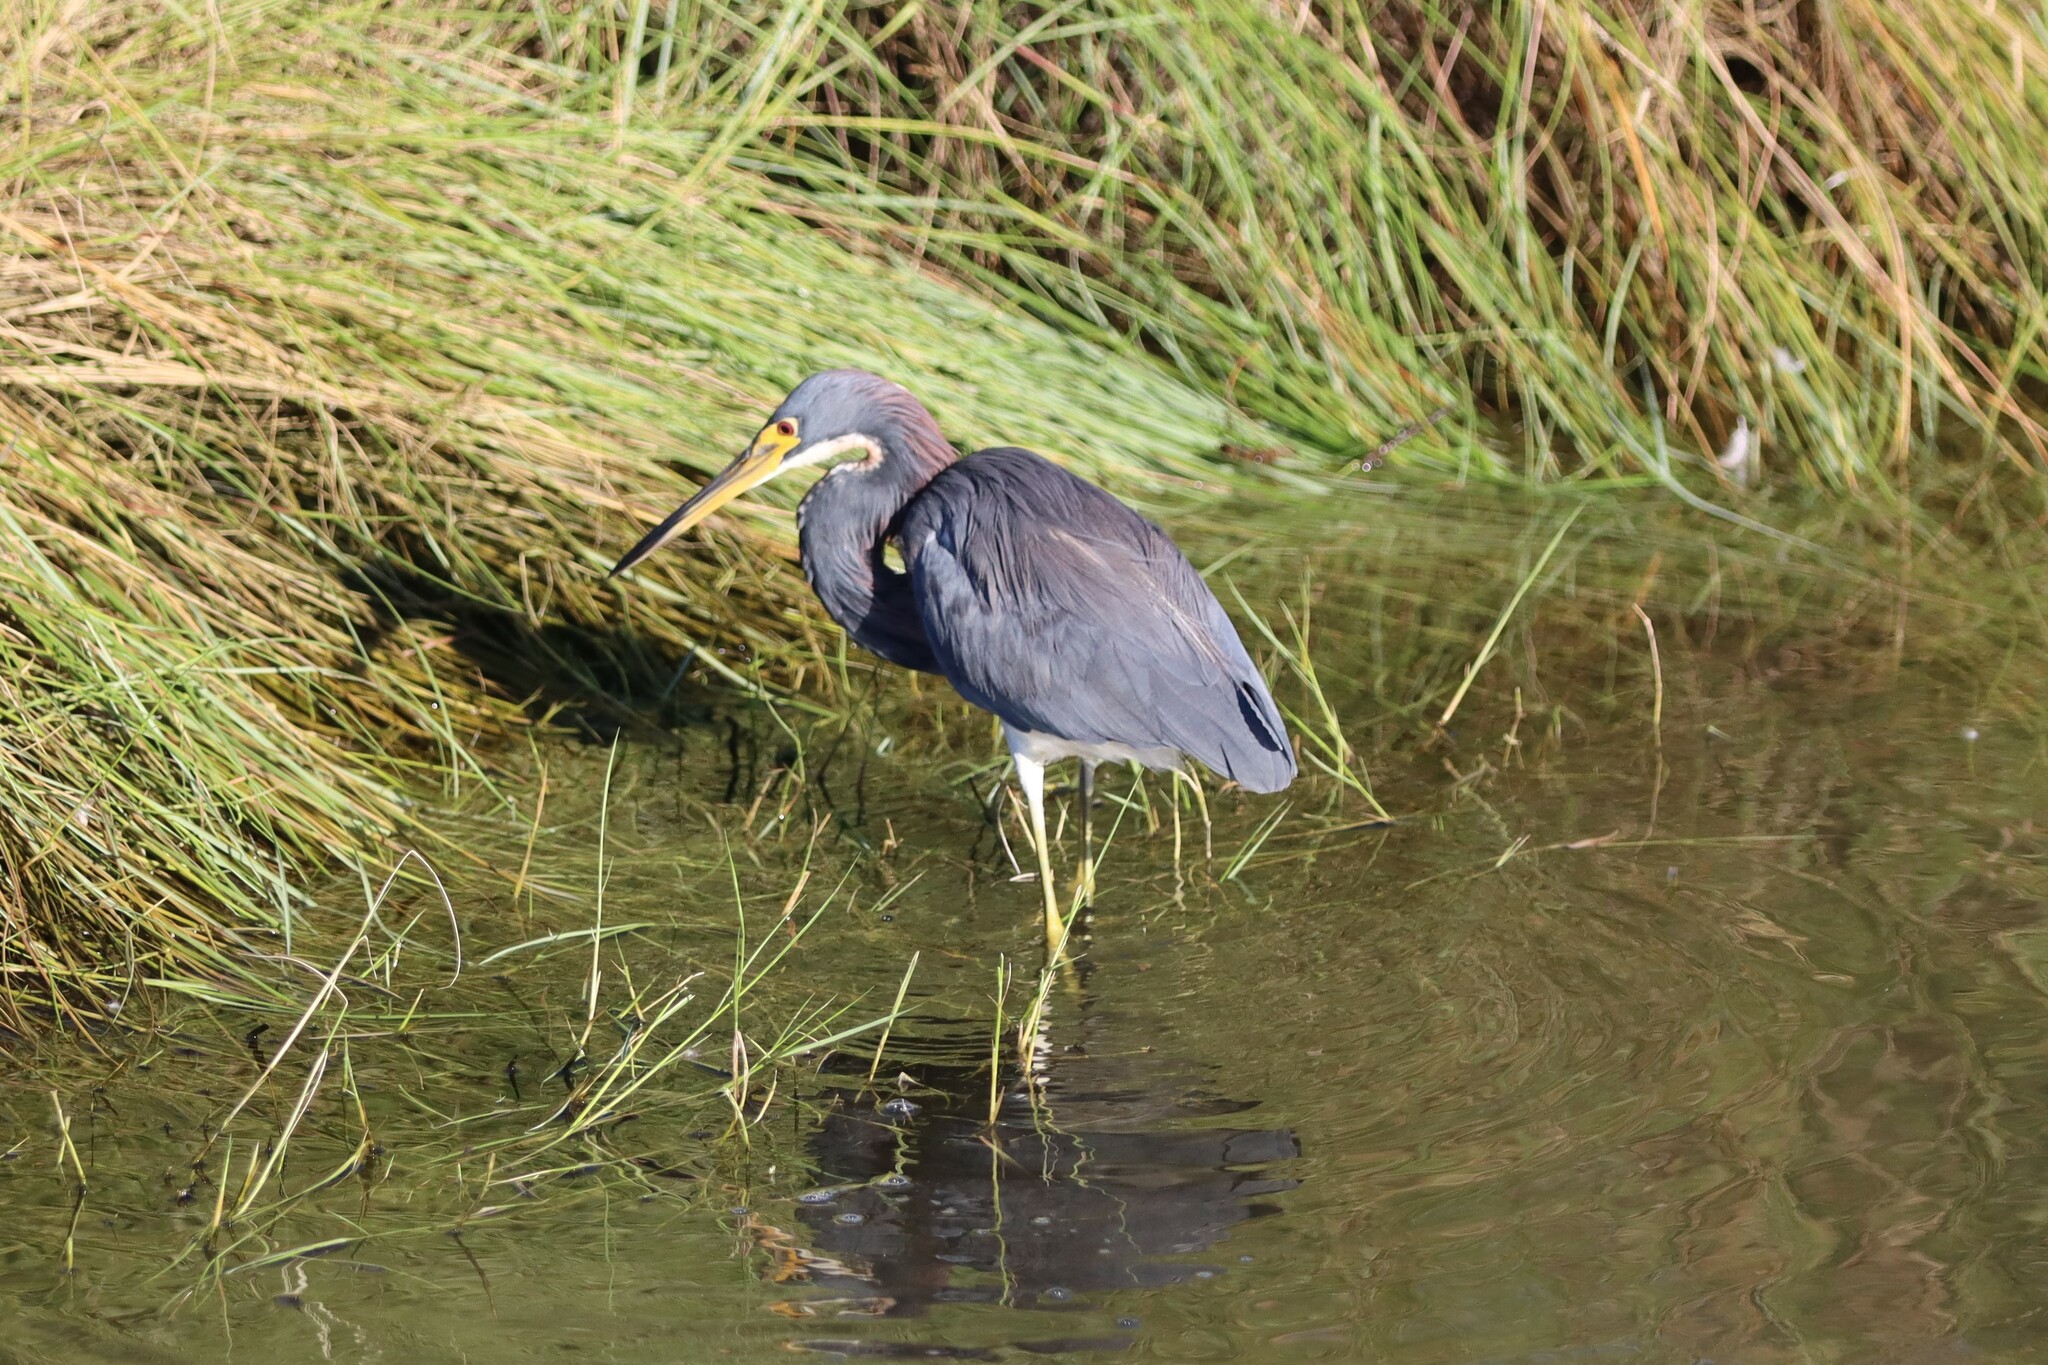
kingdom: Animalia
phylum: Chordata
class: Aves
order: Pelecaniformes
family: Ardeidae
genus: Egretta
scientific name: Egretta tricolor
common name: Tricolored heron
